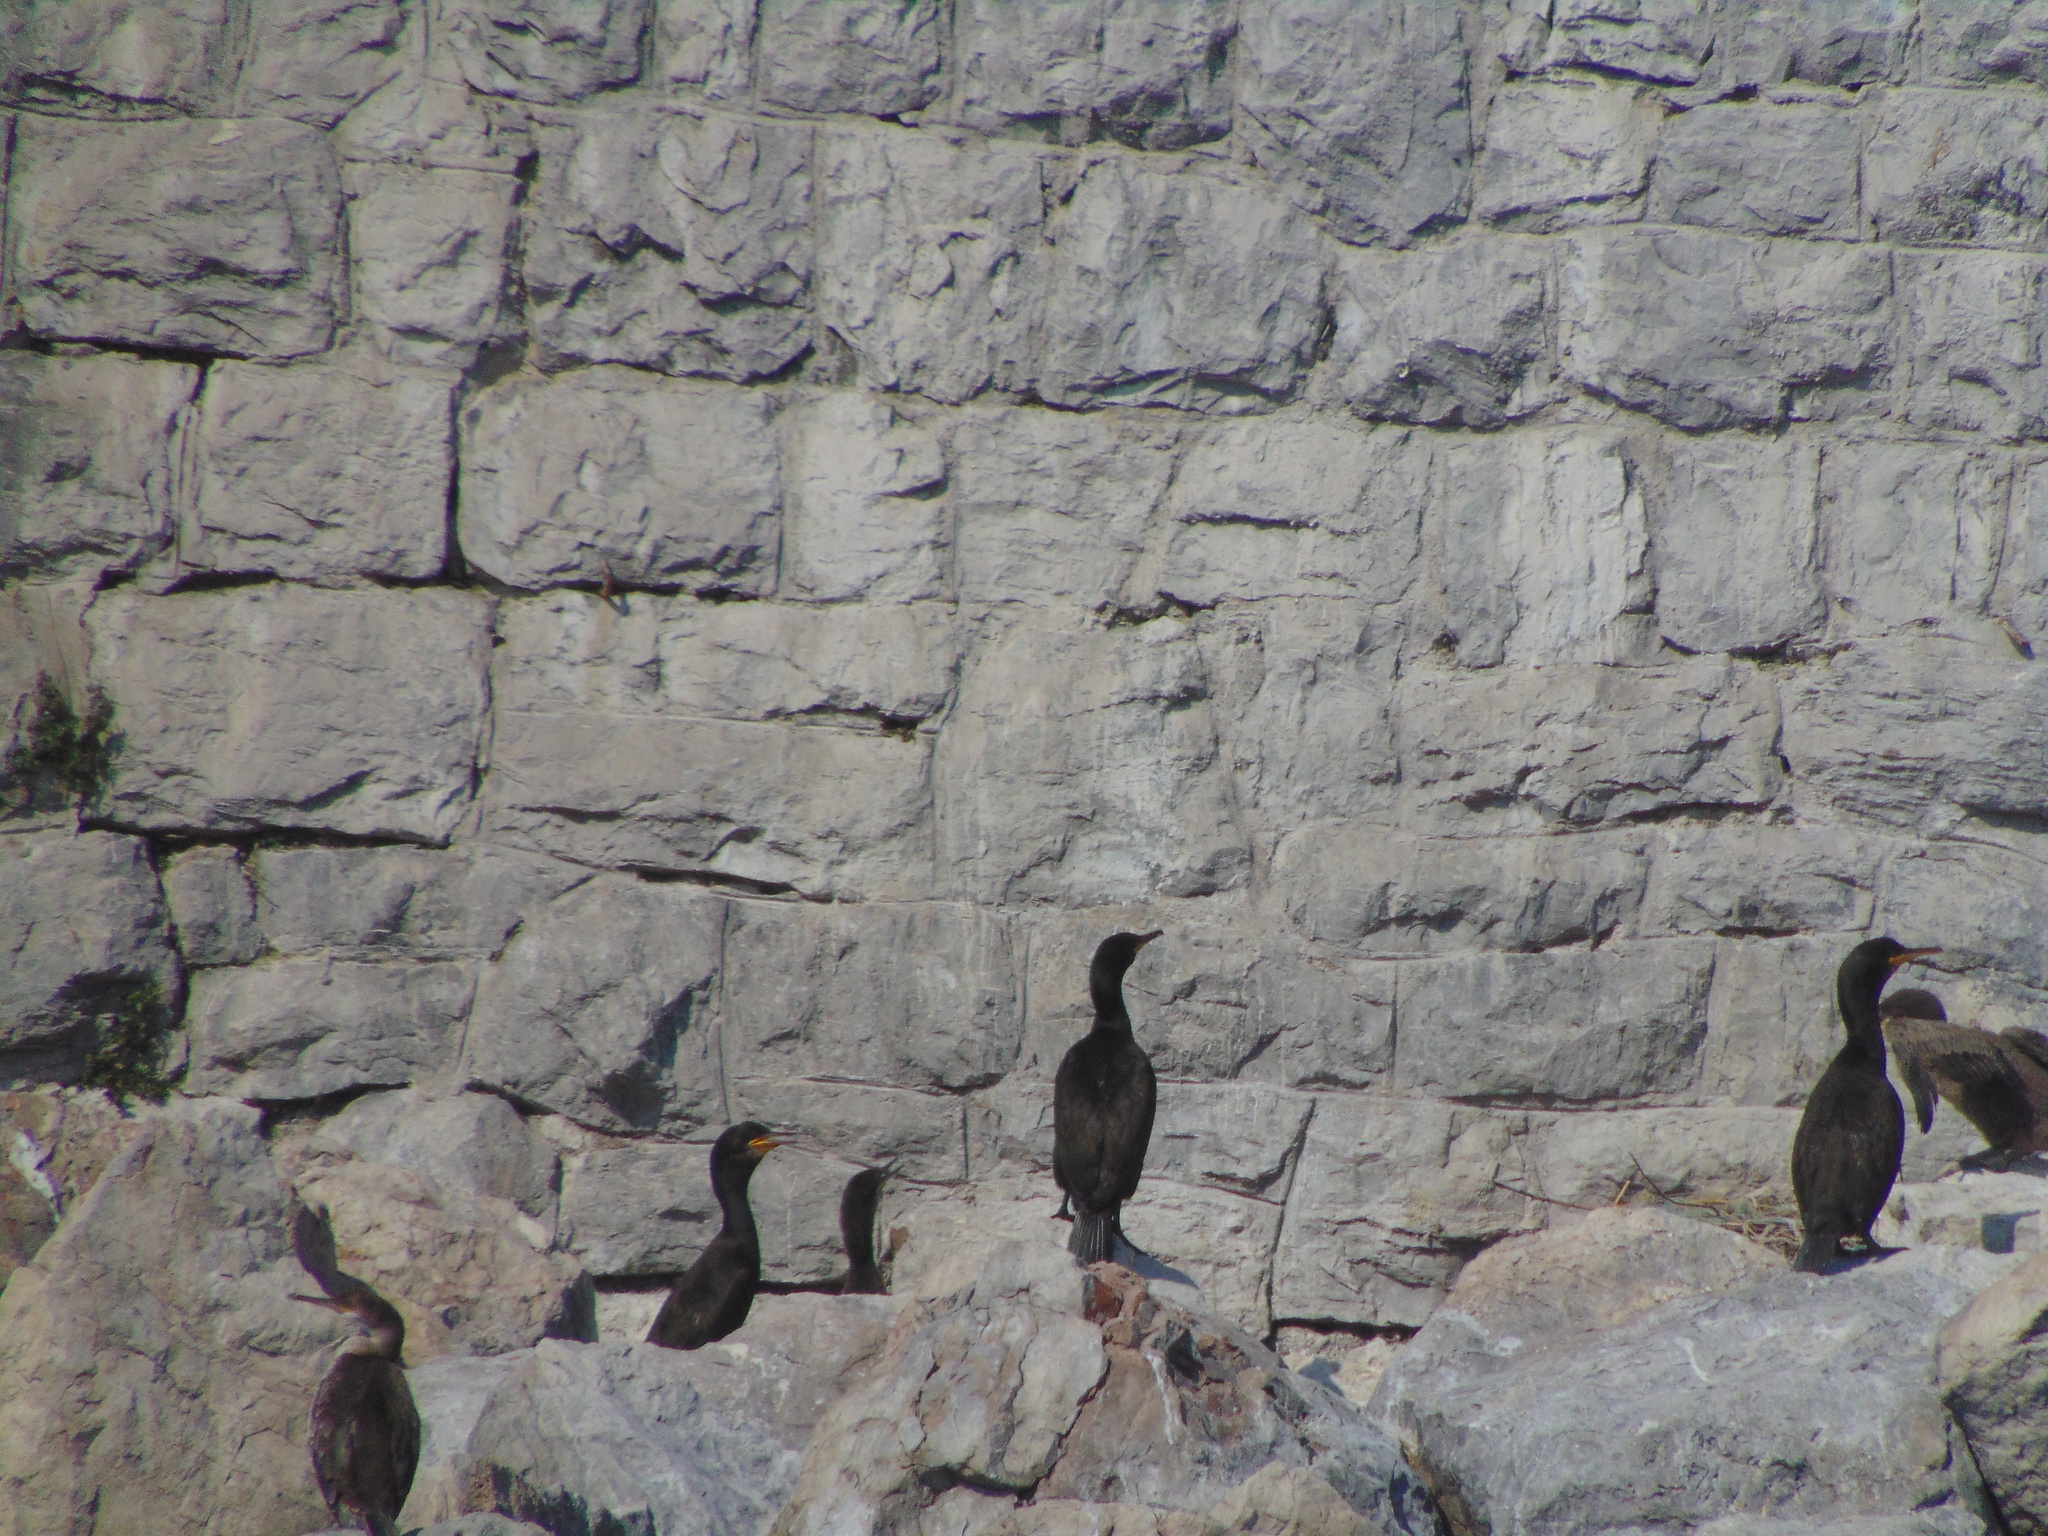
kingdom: Animalia
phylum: Chordata
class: Aves
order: Suliformes
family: Phalacrocoracidae
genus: Phalacrocorax
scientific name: Phalacrocorax aristotelis
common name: European shag
